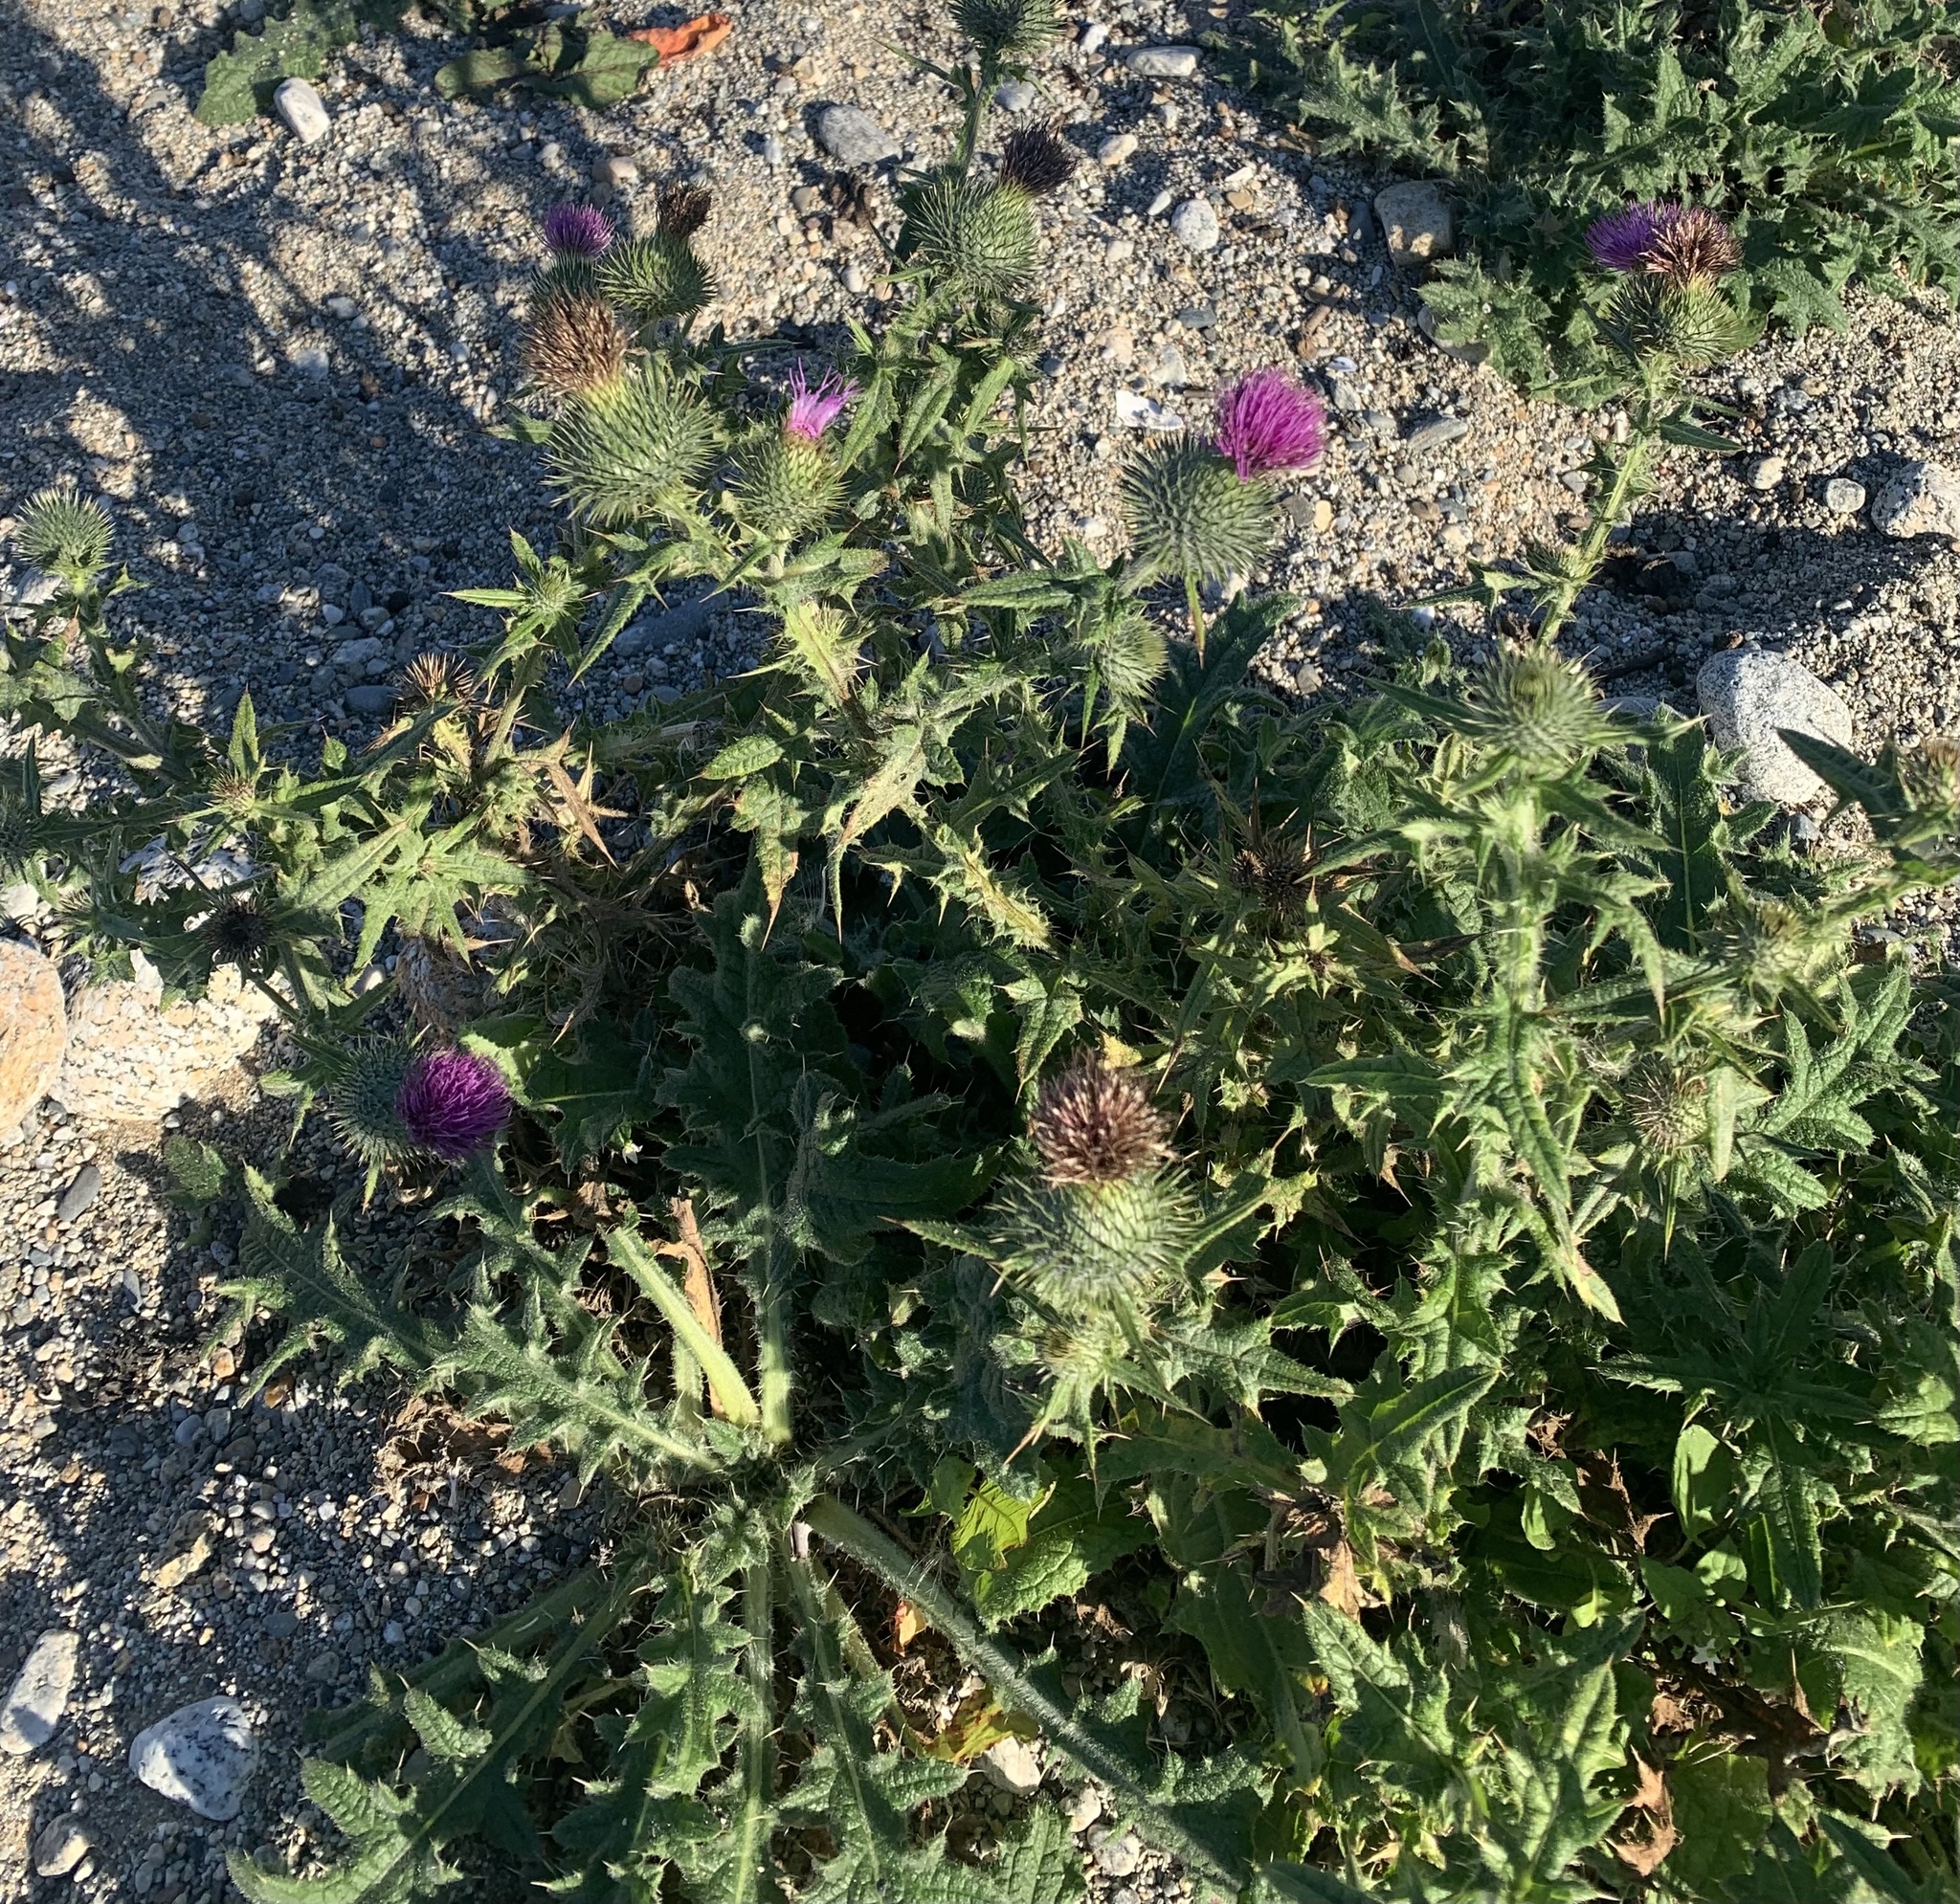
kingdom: Plantae
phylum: Tracheophyta
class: Magnoliopsida
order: Asterales
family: Asteraceae
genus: Cirsium
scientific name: Cirsium vulgare
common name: Bull thistle
